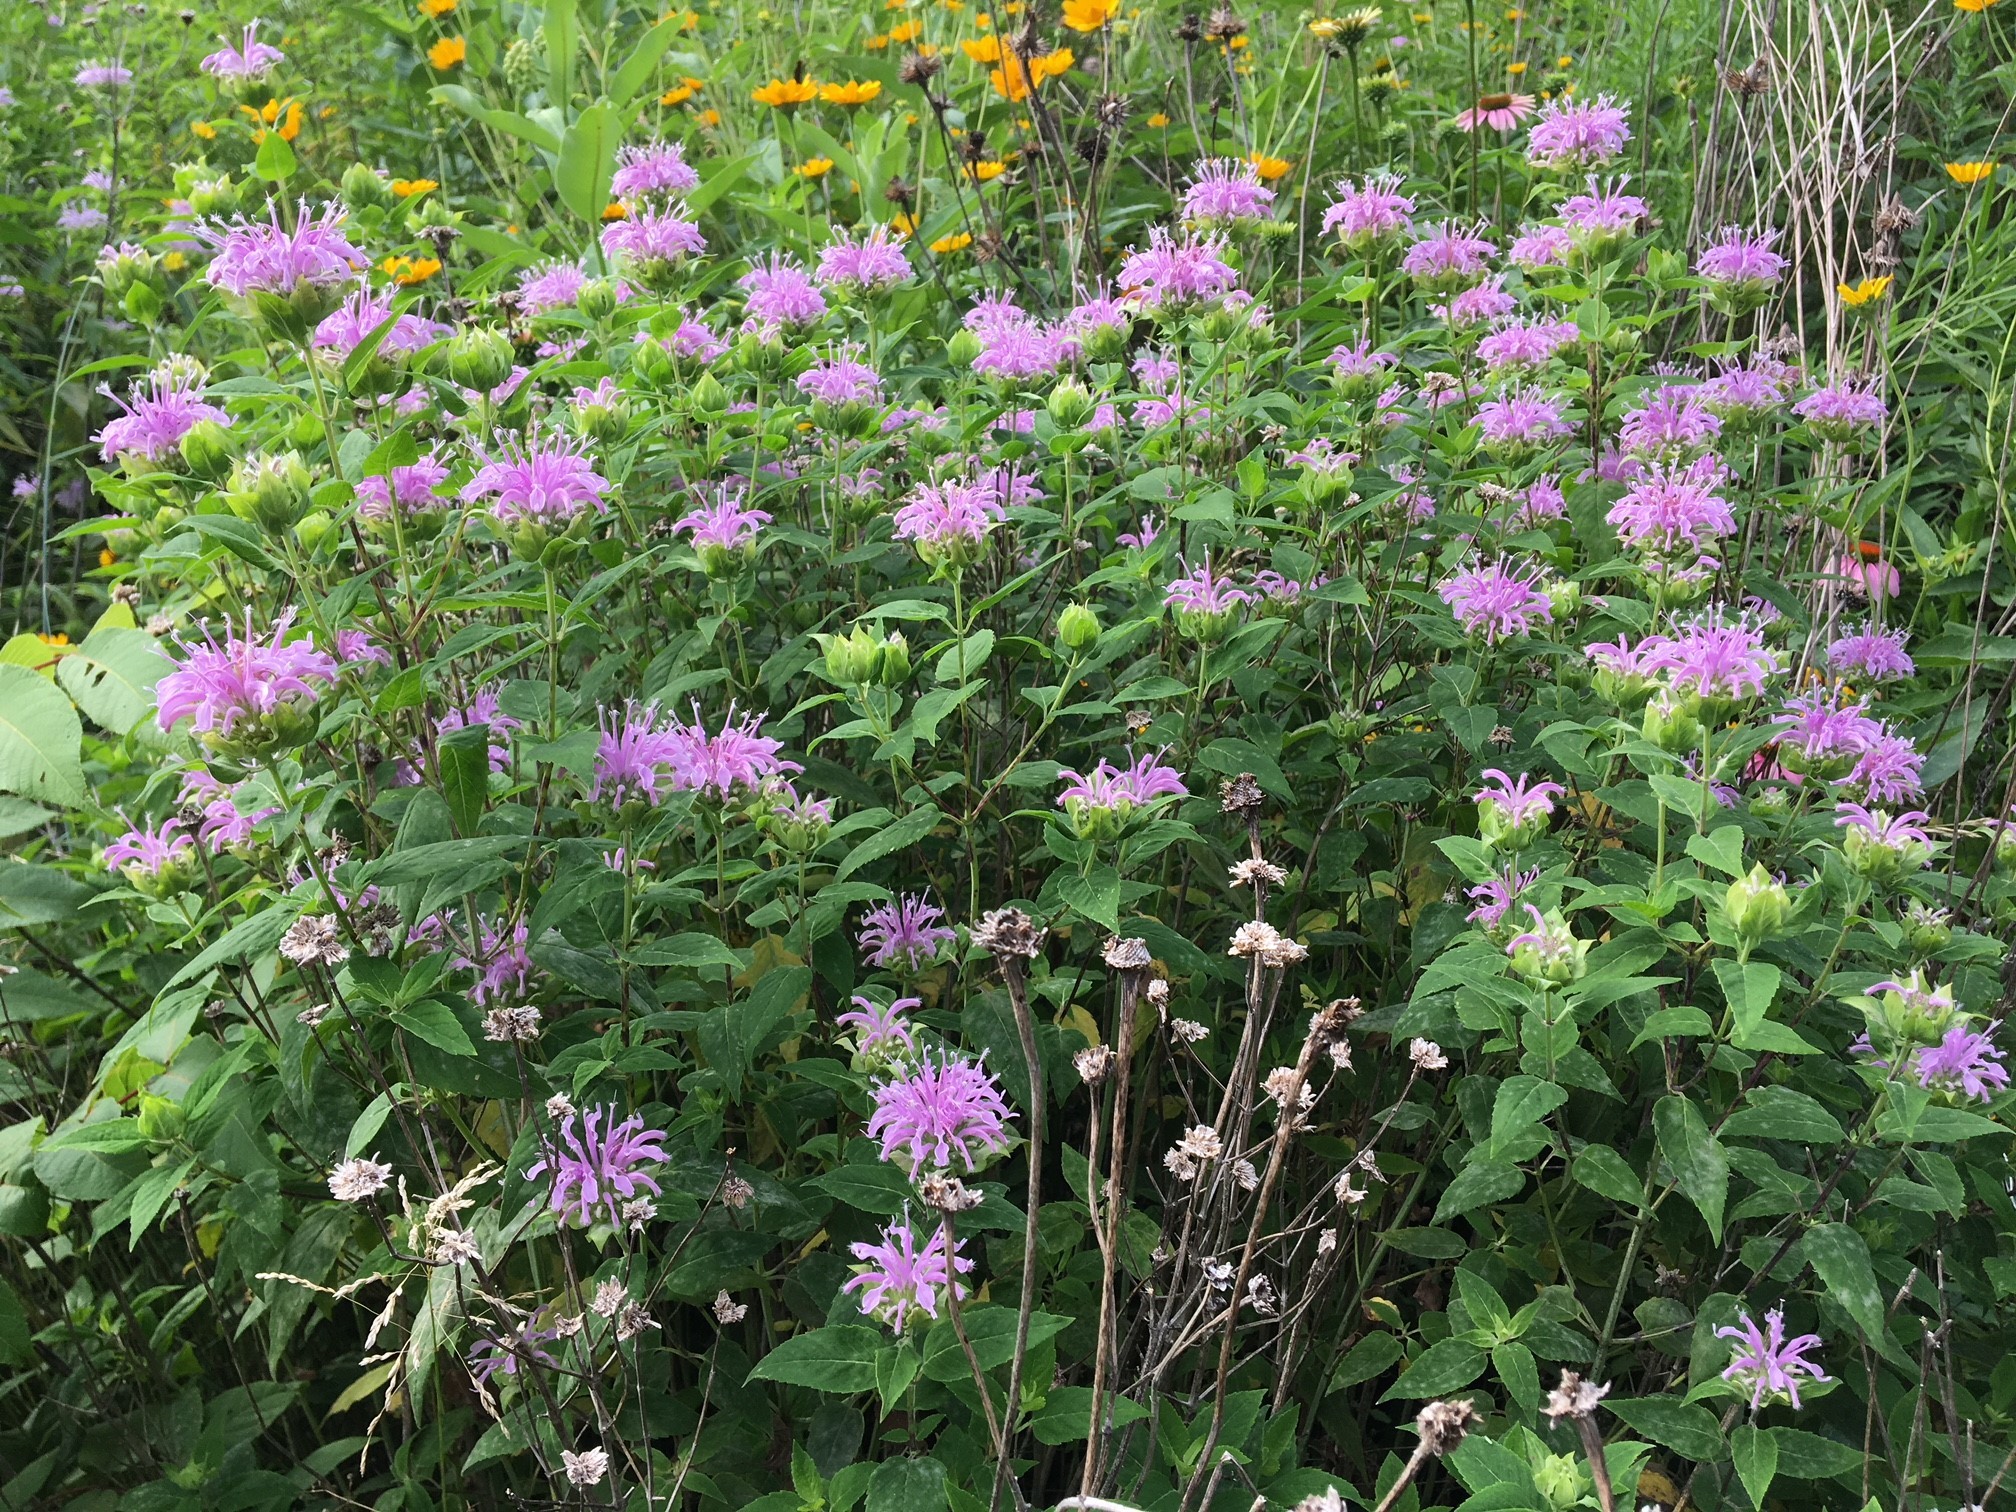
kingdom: Plantae
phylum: Tracheophyta
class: Magnoliopsida
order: Lamiales
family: Lamiaceae
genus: Monarda
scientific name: Monarda fistulosa
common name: Purple beebalm
